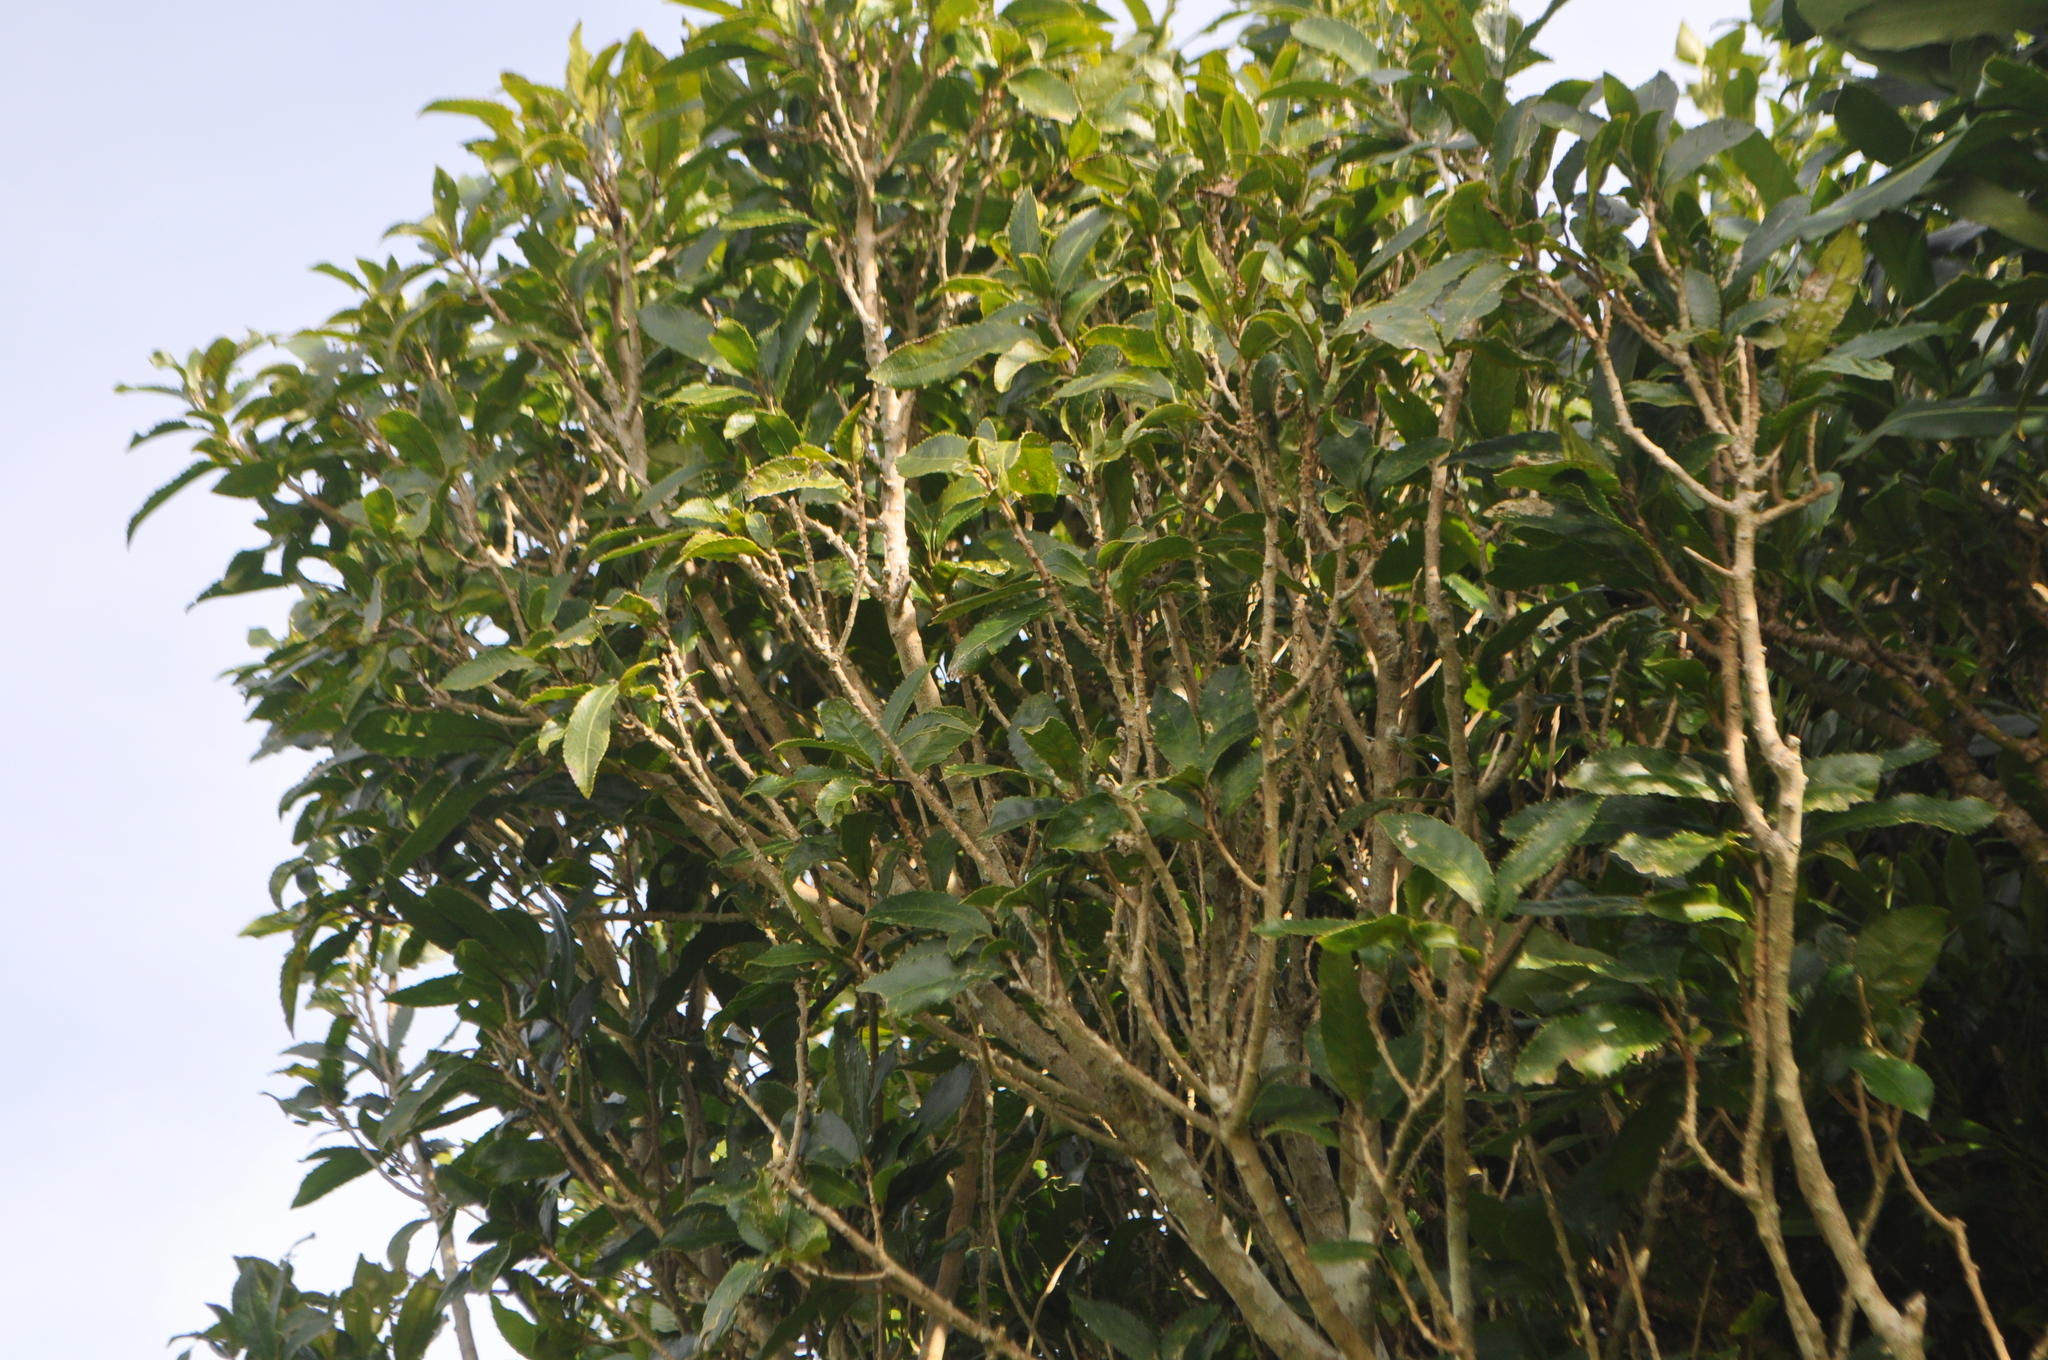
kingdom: Plantae
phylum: Tracheophyta
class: Magnoliopsida
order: Malpighiales
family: Violaceae
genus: Melicytus
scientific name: Melicytus ramiflorus
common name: Mahoe
